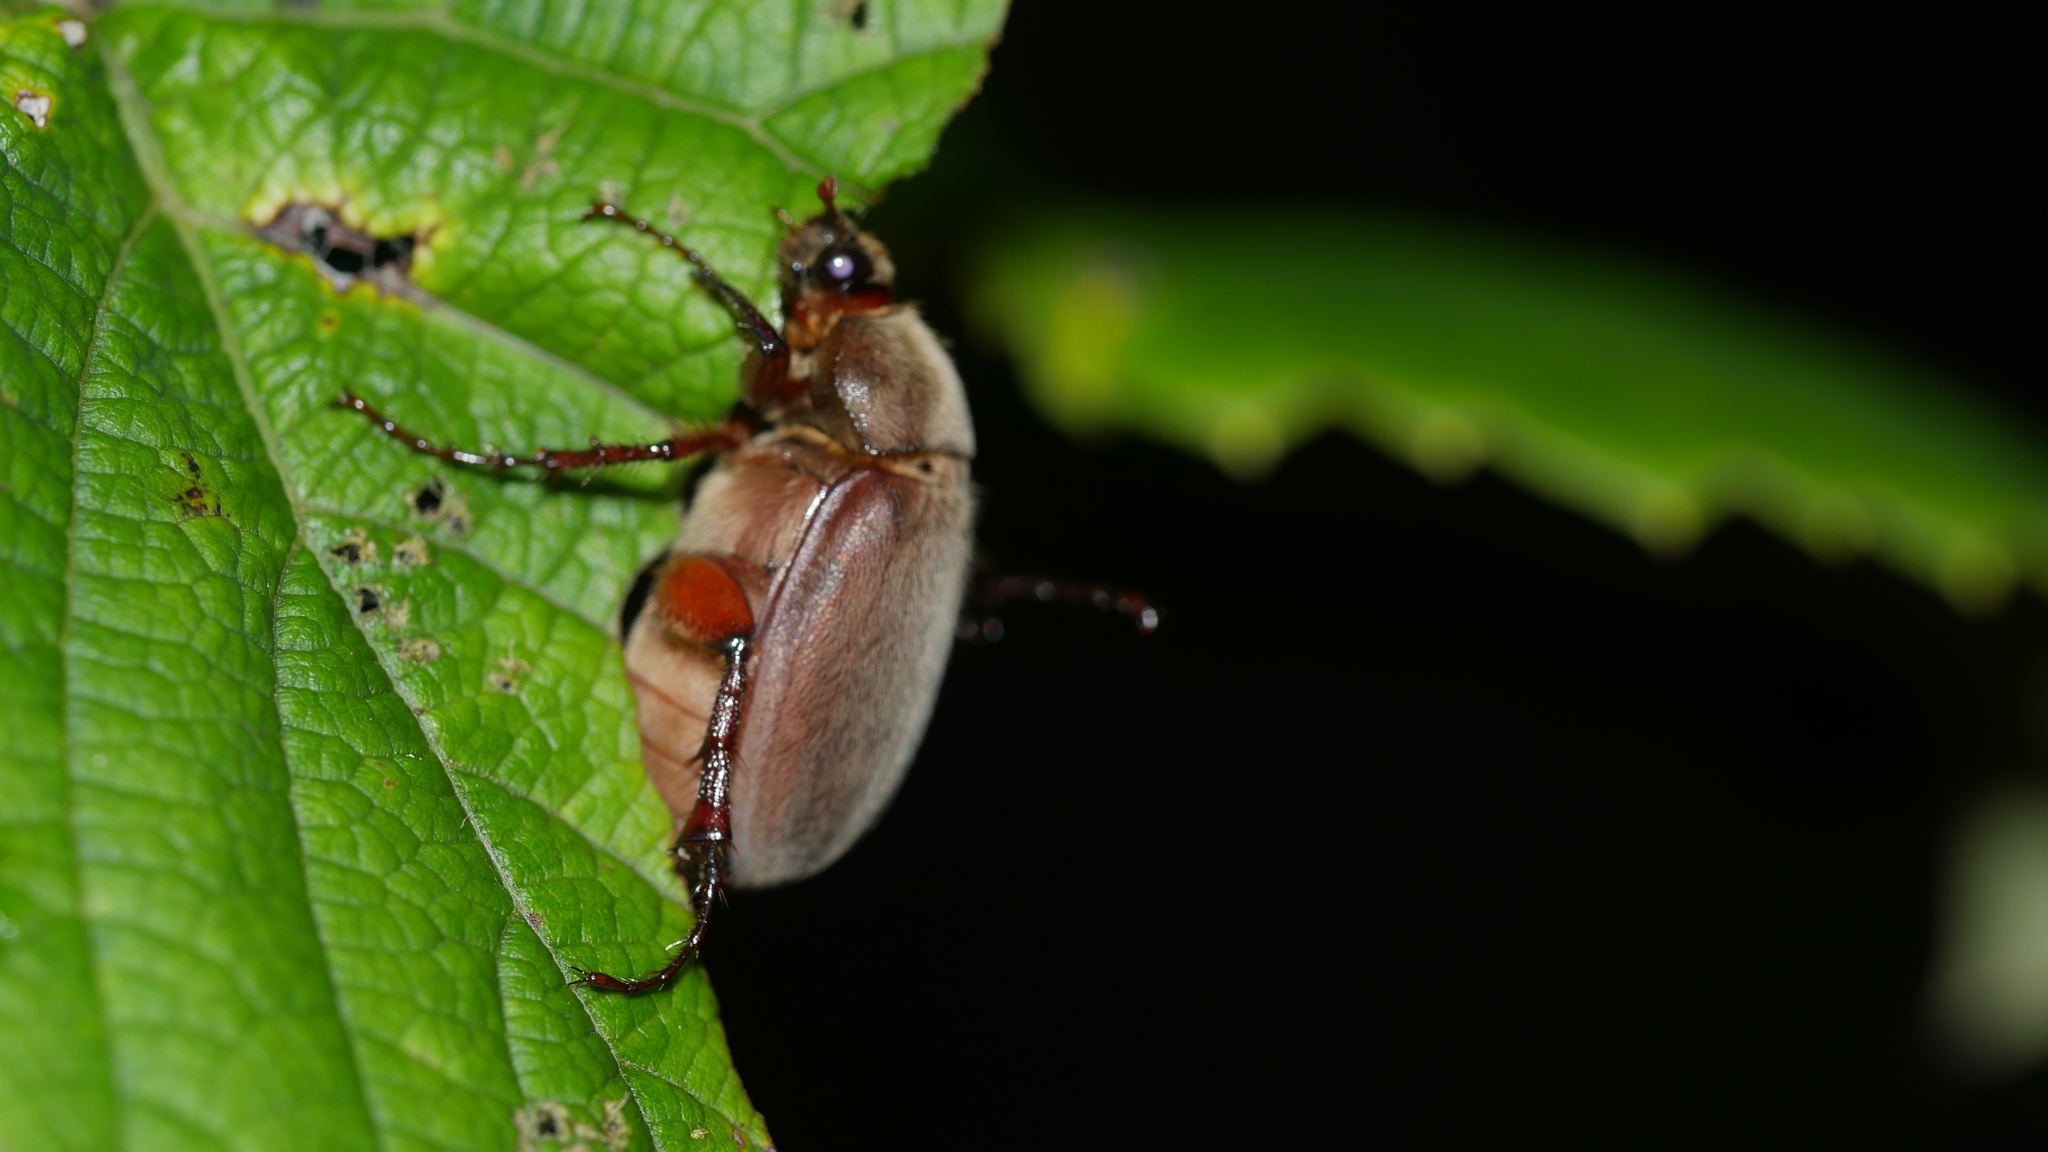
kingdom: Animalia
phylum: Arthropoda
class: Insecta
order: Coleoptera
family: Scarabaeidae
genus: Phyllophaga
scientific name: Phyllophaga
